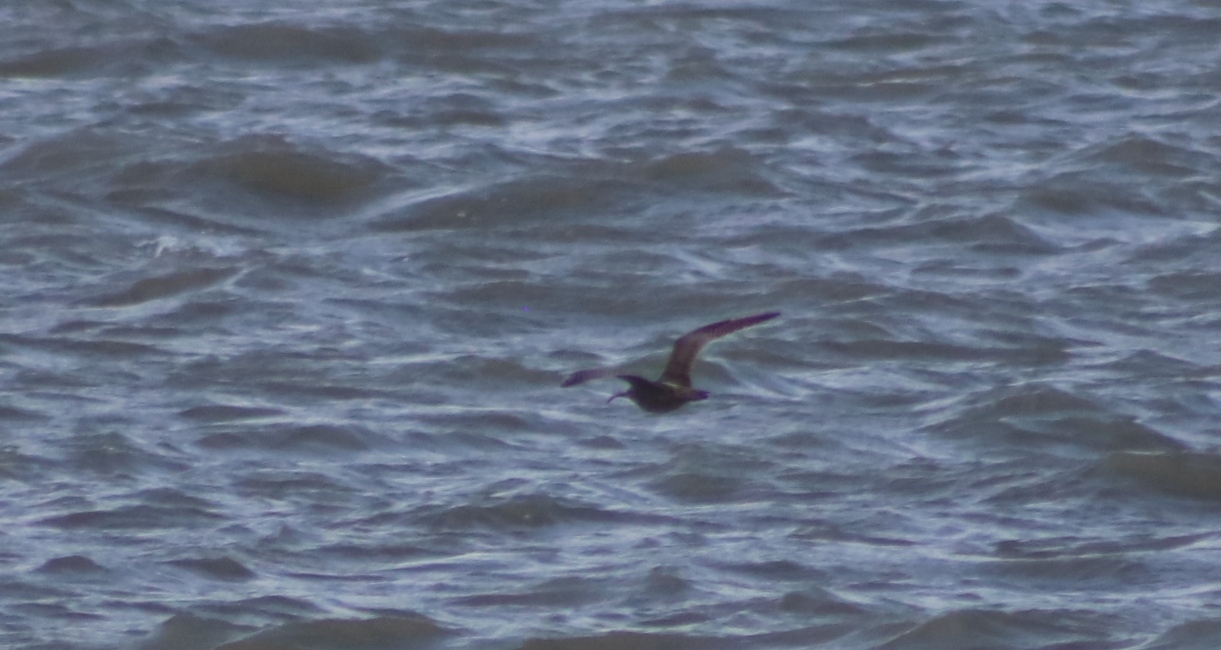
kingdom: Animalia
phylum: Chordata
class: Aves
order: Charadriiformes
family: Scolopacidae
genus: Numenius
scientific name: Numenius phaeopus
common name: Whimbrel
